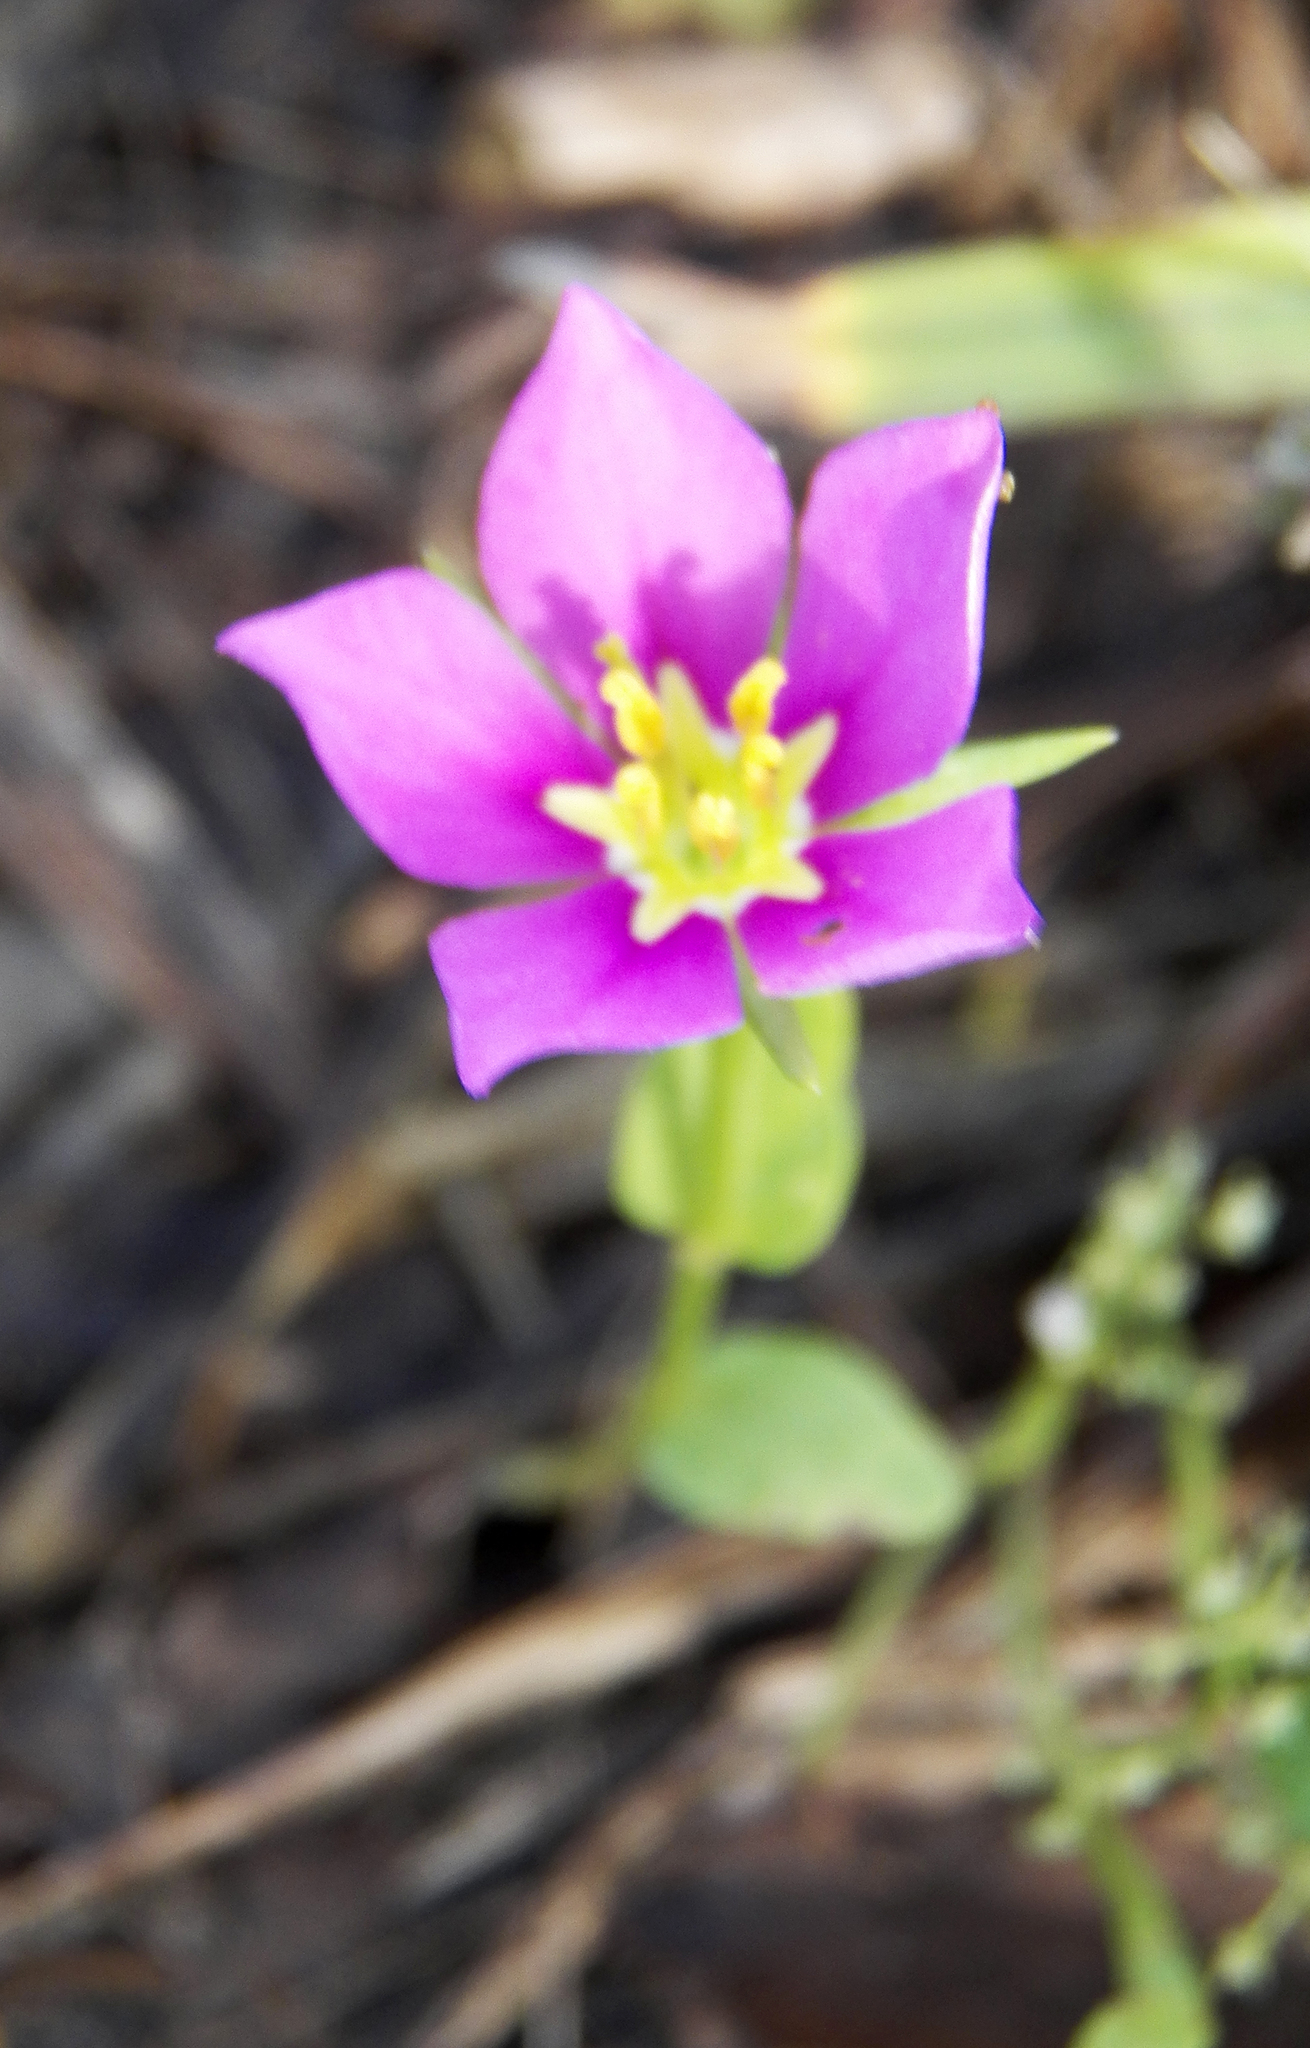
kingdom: Plantae
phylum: Tracheophyta
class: Magnoliopsida
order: Gentianales
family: Gentianaceae
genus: Sabatia
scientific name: Sabatia campestris
